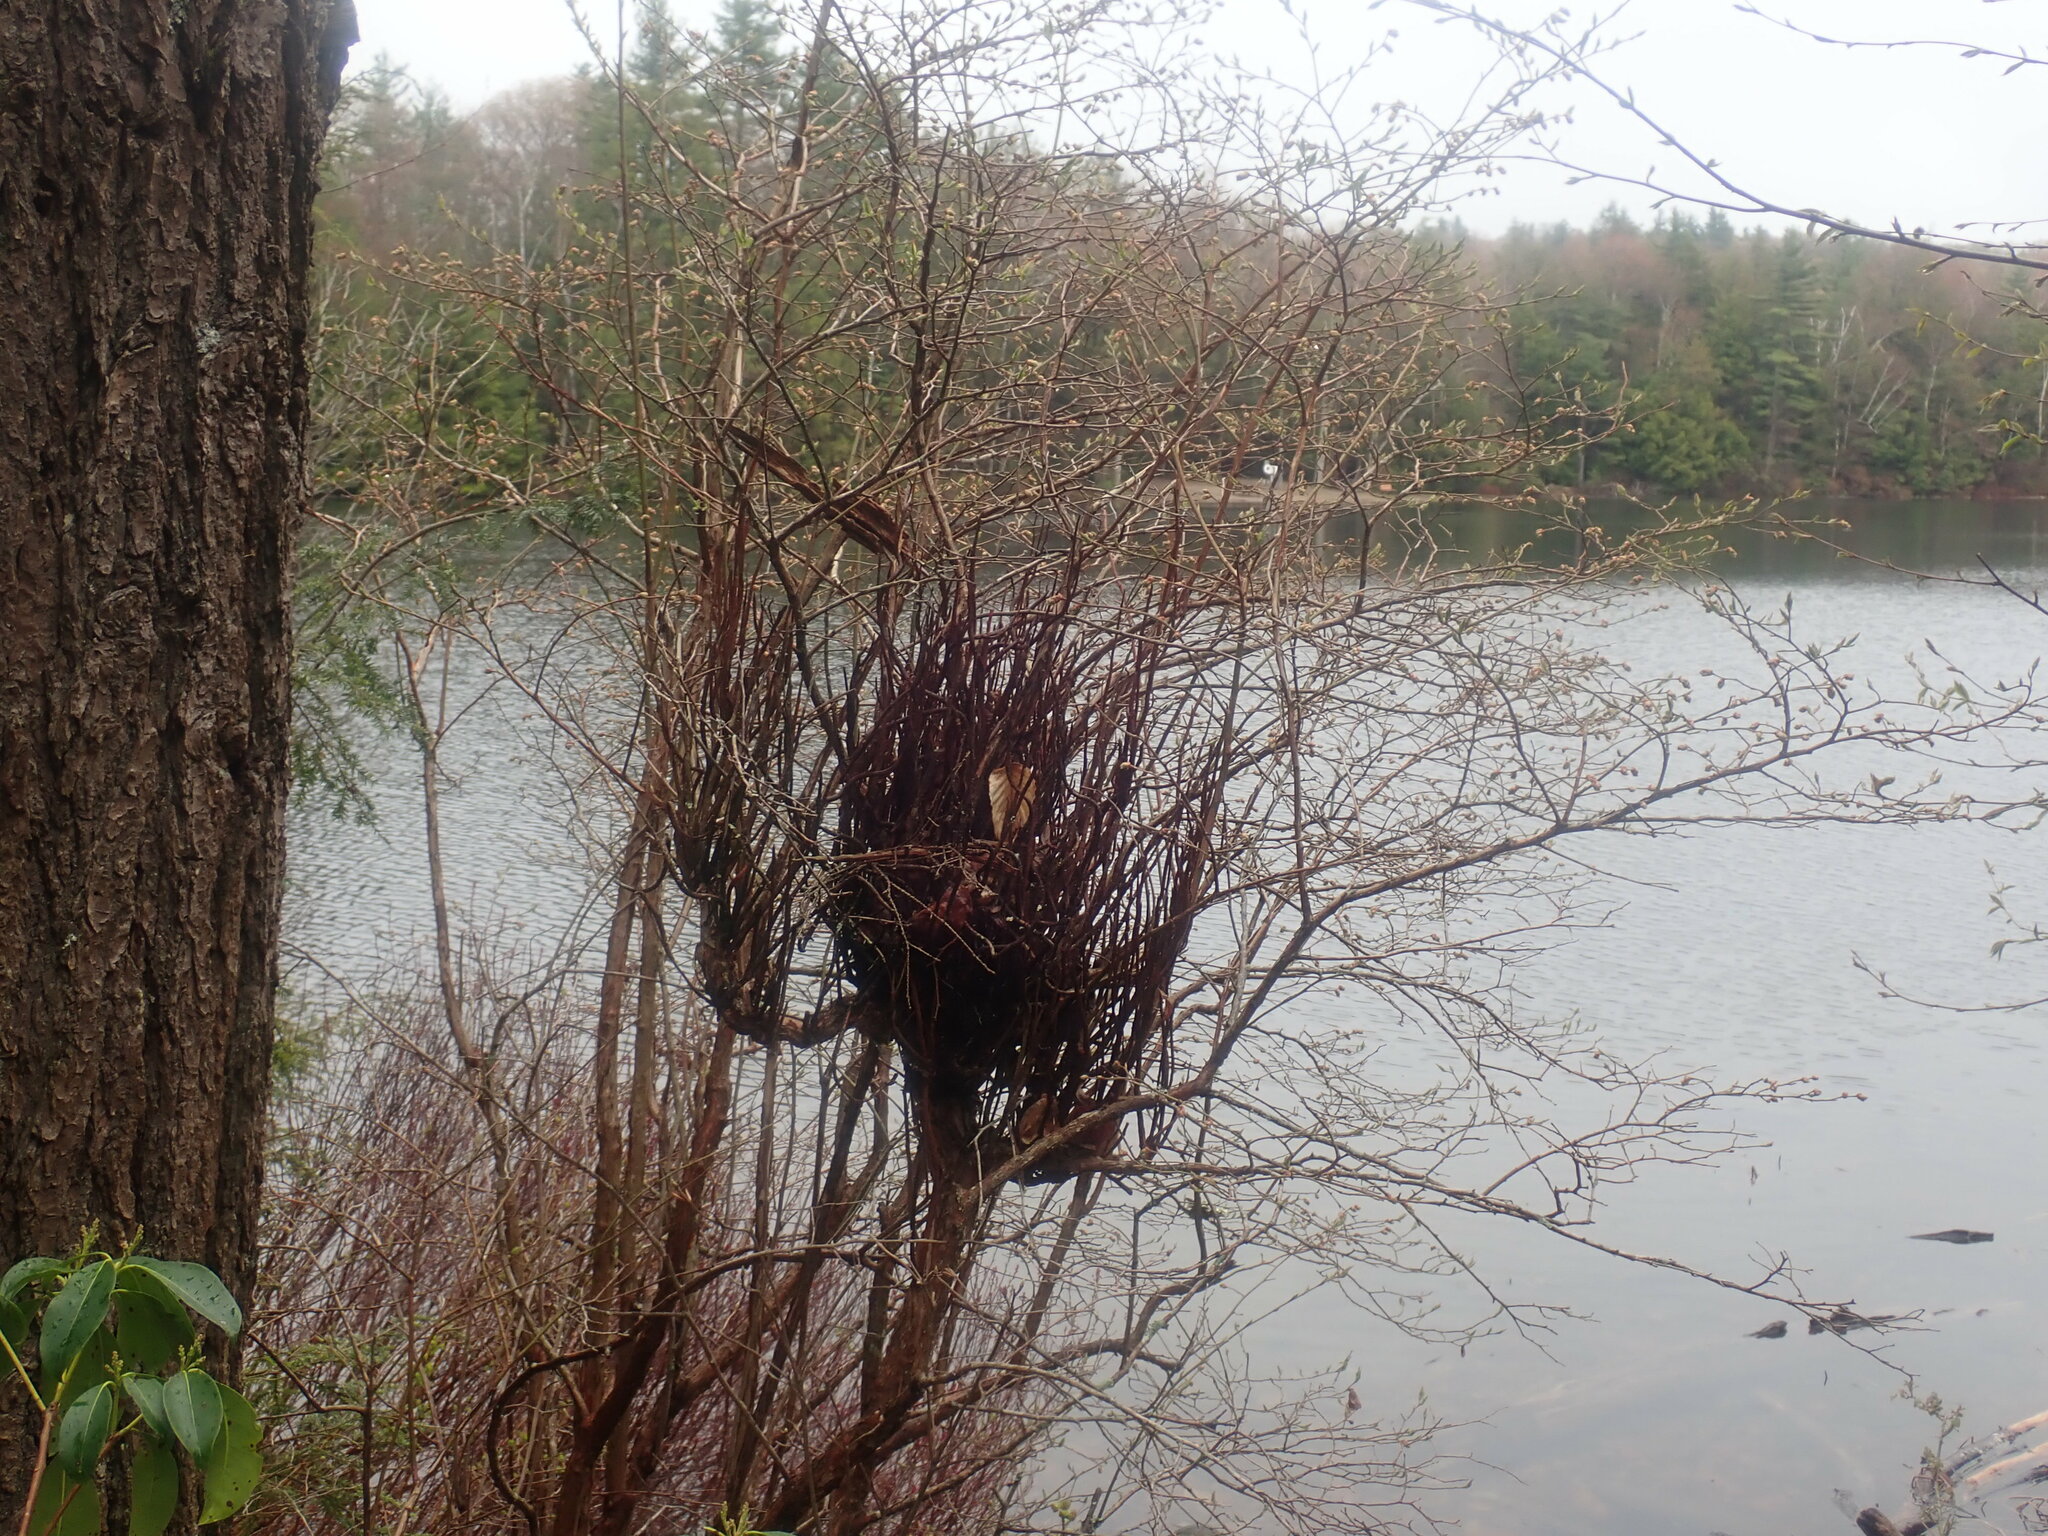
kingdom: Fungi
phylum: Basidiomycota
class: Pucciniomycetes
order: Pucciniales
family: Pucciniastraceae
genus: Calyptospora
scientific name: Calyptospora columnaris
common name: Huckleberry broom rust fungus
